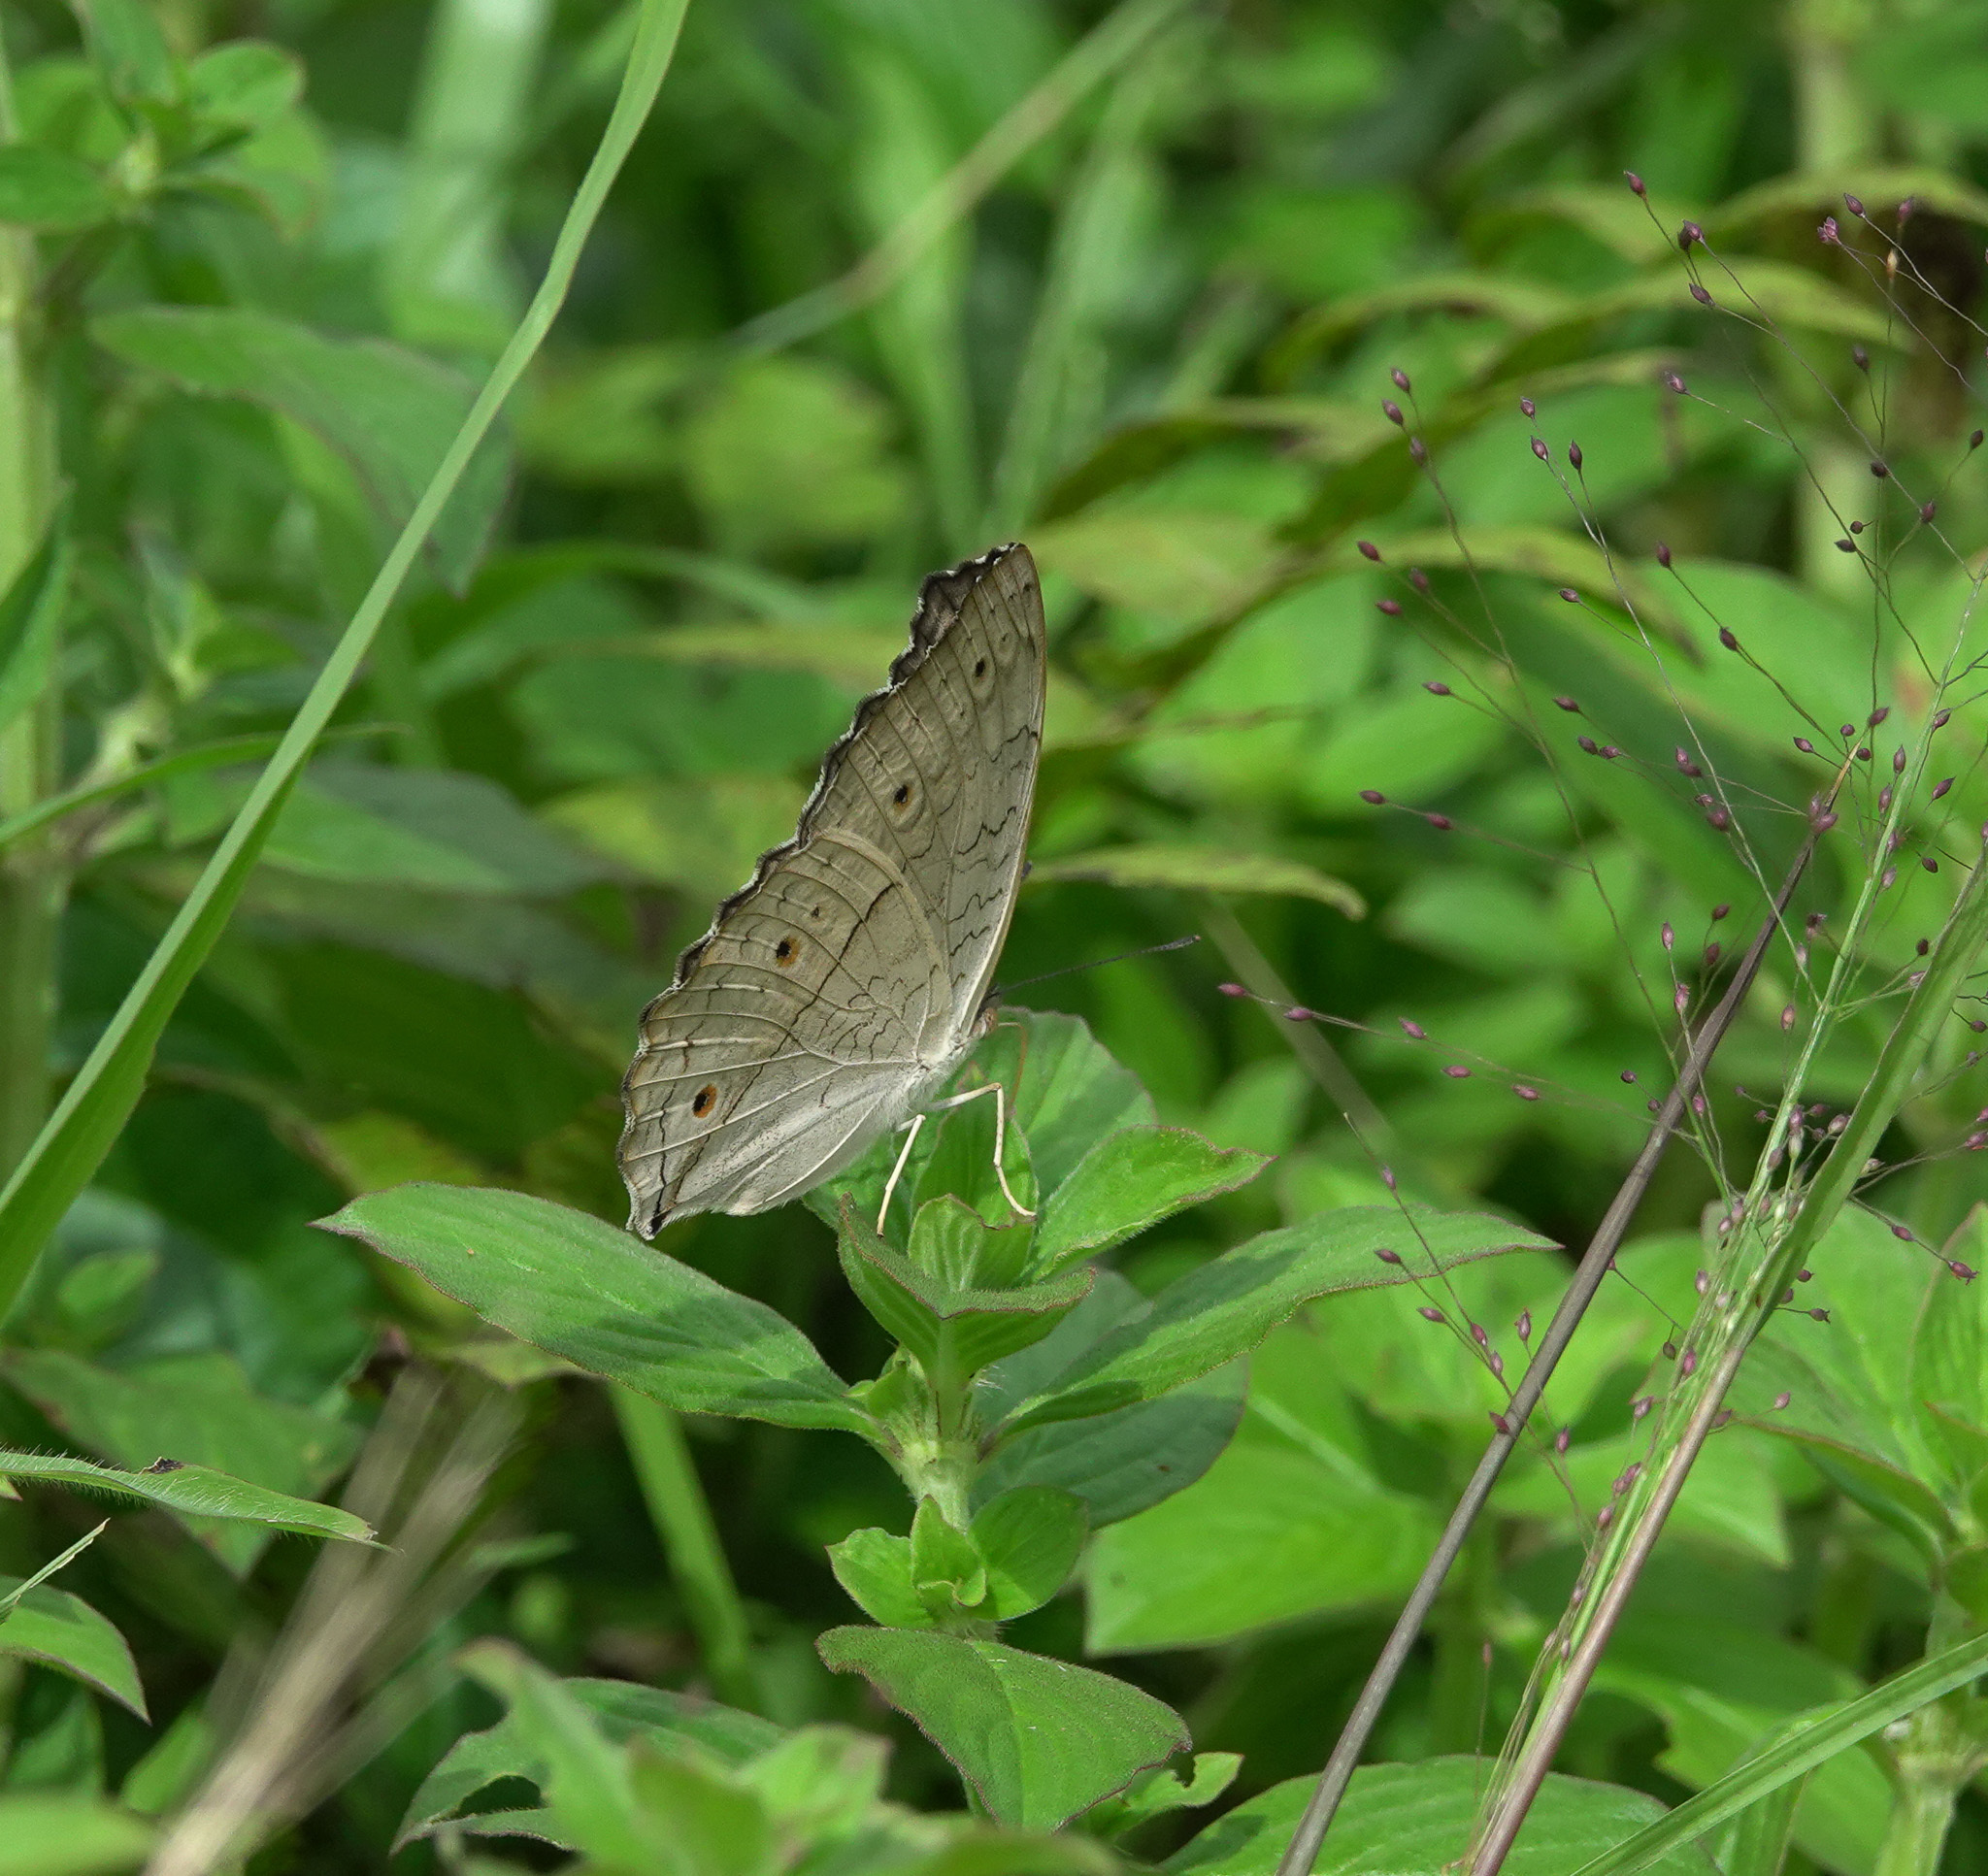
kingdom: Animalia
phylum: Arthropoda
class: Insecta
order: Lepidoptera
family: Nymphalidae
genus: Junonia
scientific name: Junonia atlites
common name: Grey pansy
